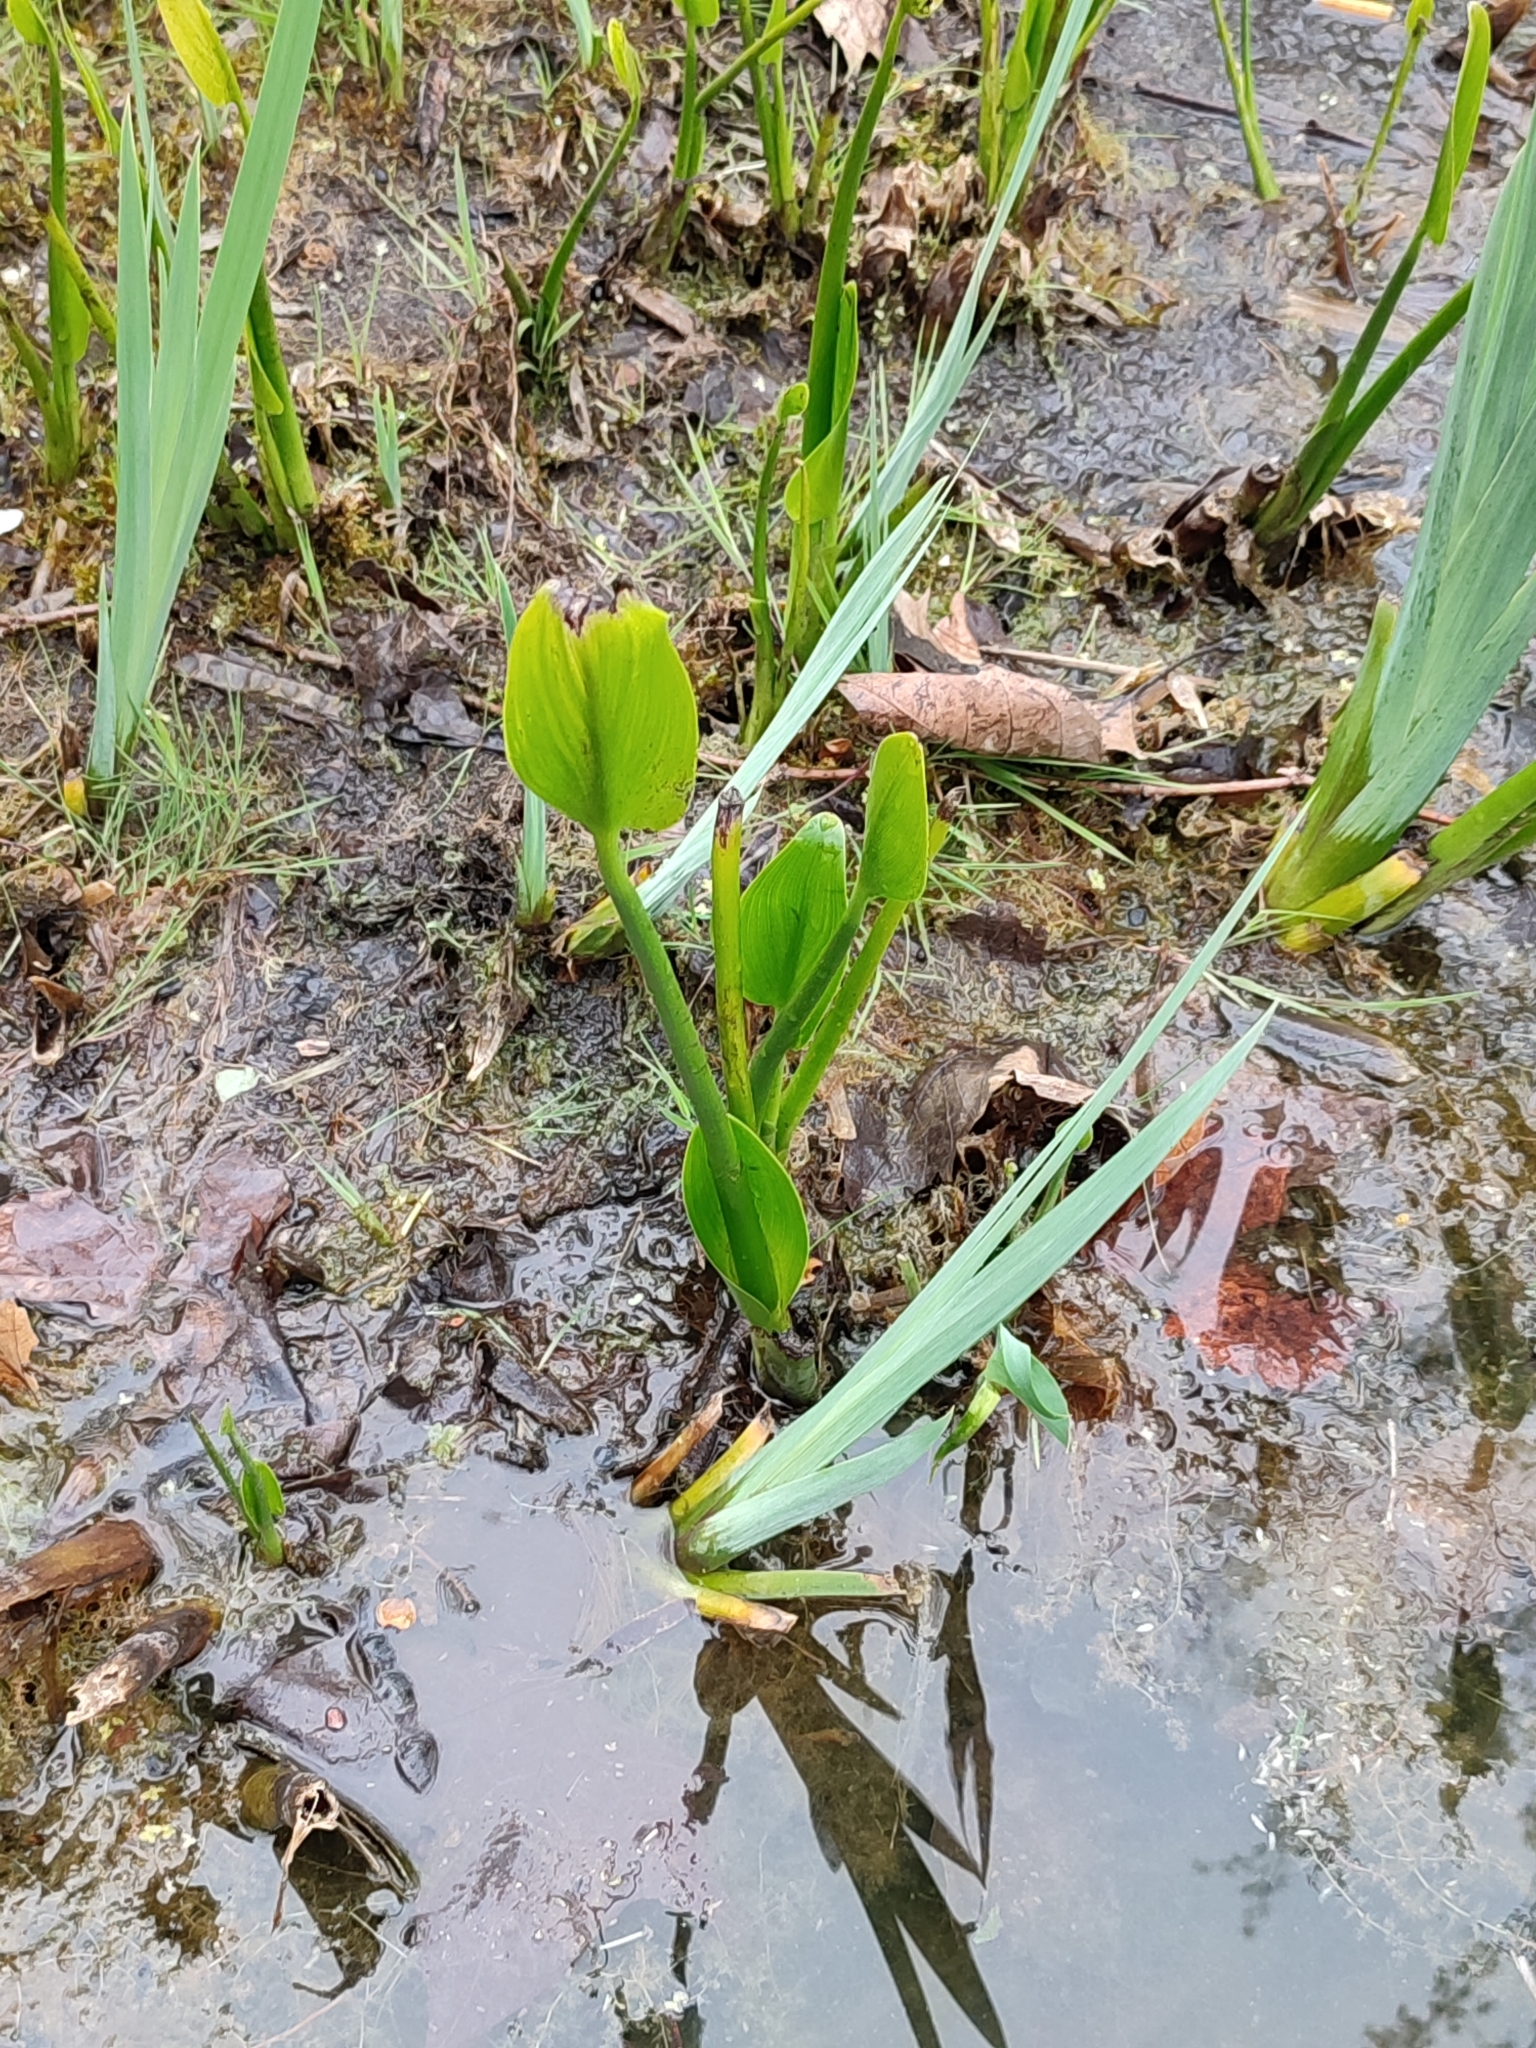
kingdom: Plantae
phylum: Tracheophyta
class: Liliopsida
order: Asparagales
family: Iridaceae
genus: Iris
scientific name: Iris pseudacorus
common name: Yellow flag
